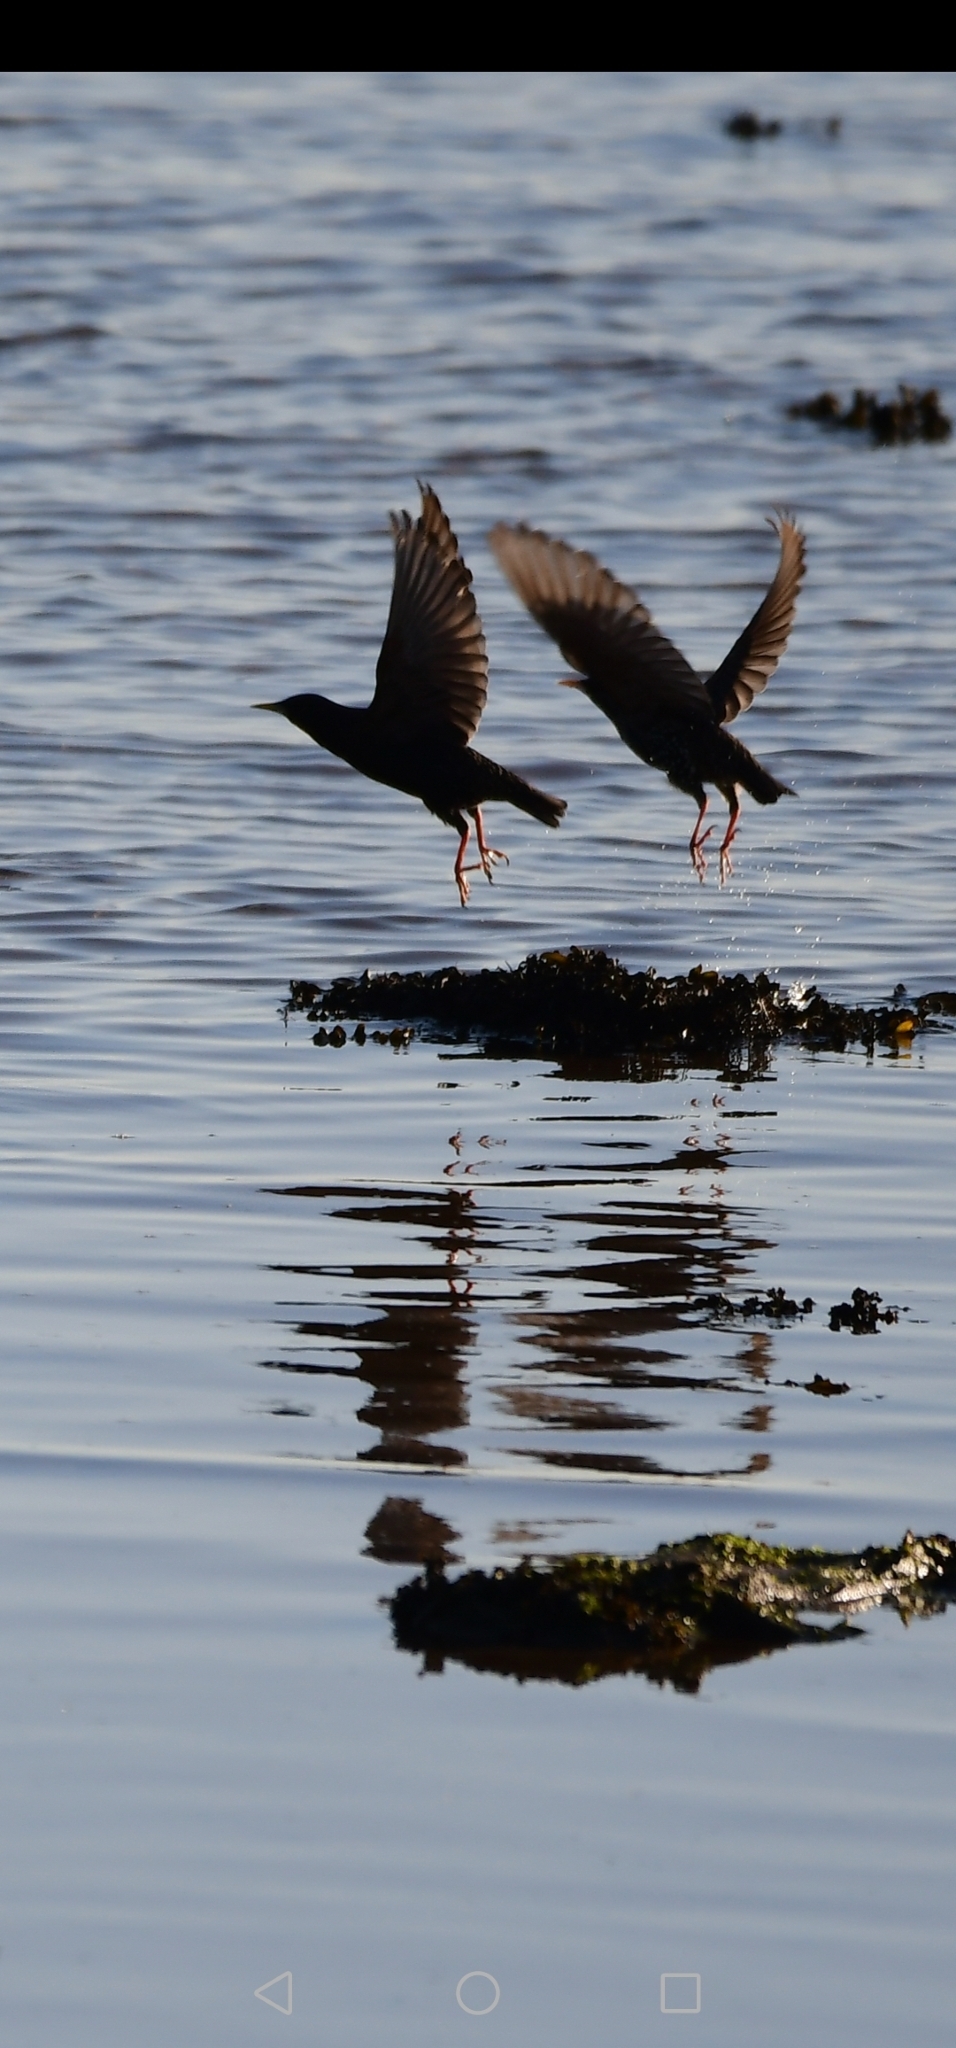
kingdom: Animalia
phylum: Chordata
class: Aves
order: Passeriformes
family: Sturnidae
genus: Sturnus
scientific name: Sturnus vulgaris
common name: Common starling
